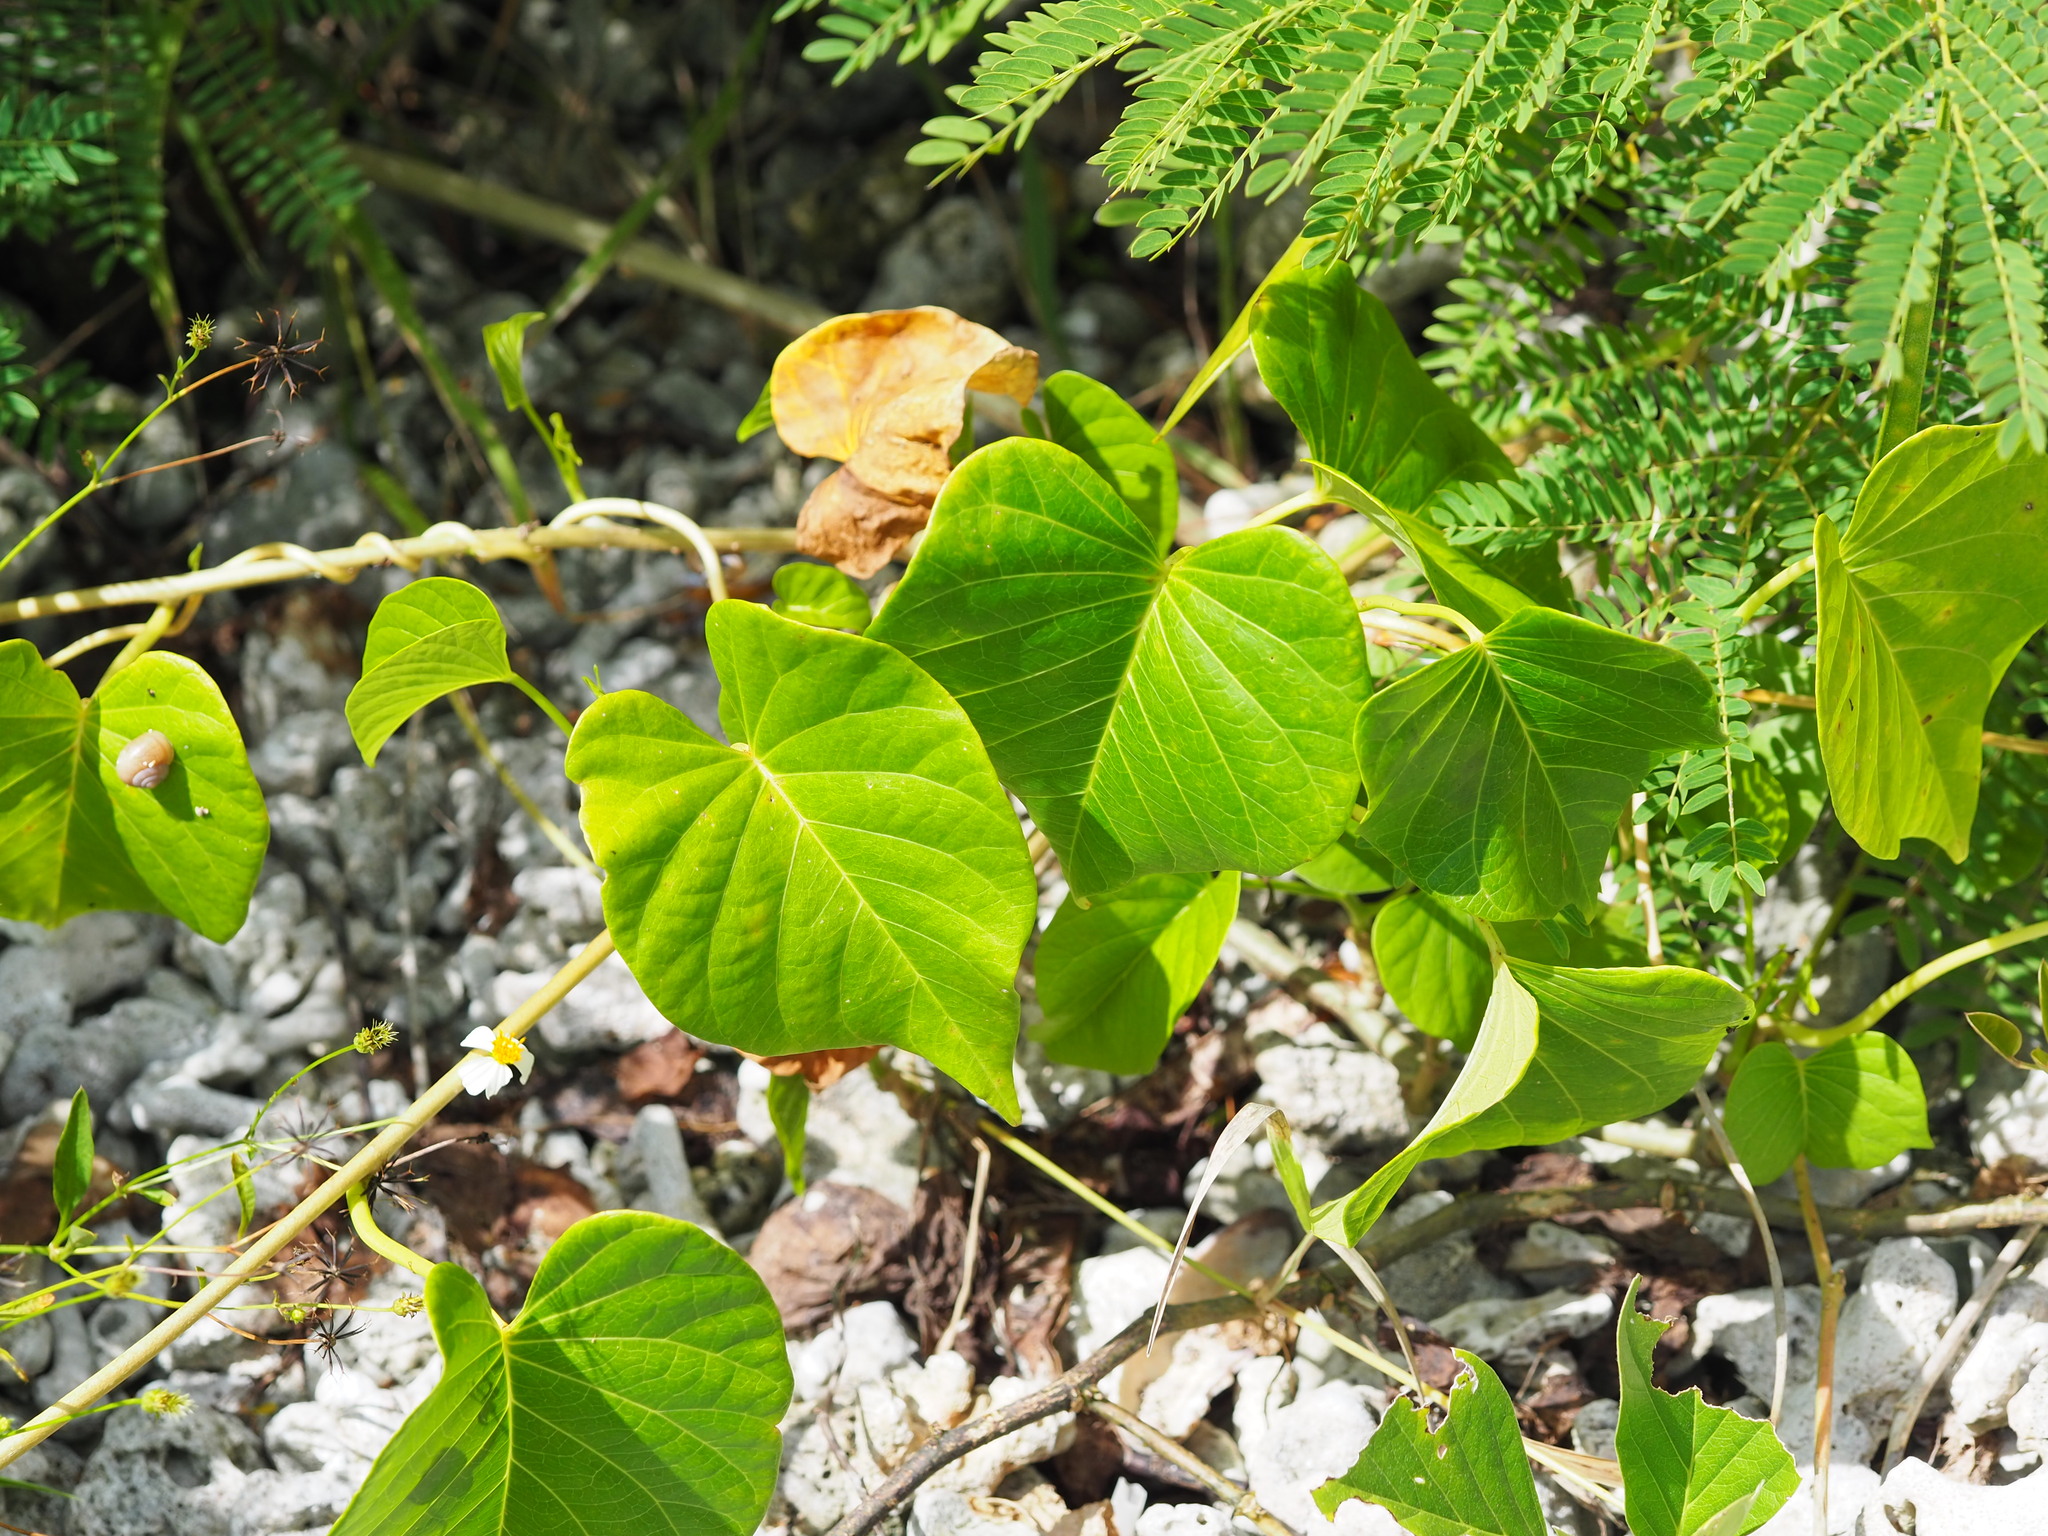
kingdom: Plantae
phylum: Tracheophyta
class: Magnoliopsida
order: Solanales
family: Convolvulaceae
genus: Ipomoea
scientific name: Ipomoea violacea
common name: Beach moonflower
